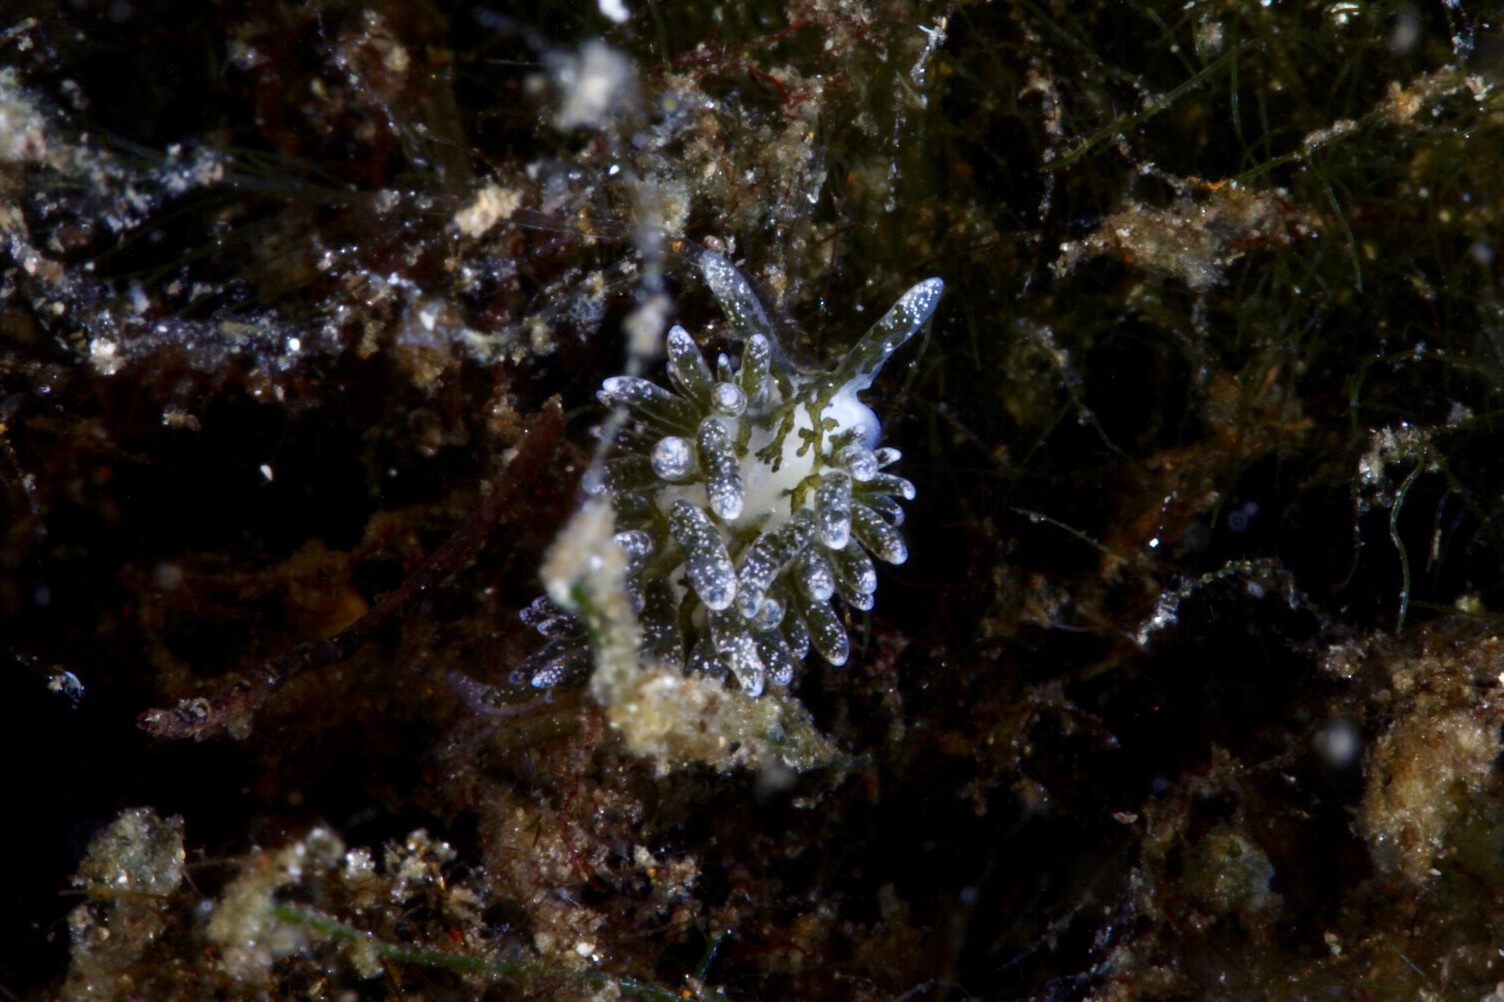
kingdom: Animalia
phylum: Mollusca
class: Gastropoda
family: Limapontiidae
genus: Placida
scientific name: Placida dendritica
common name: Dendritic nudibranch
